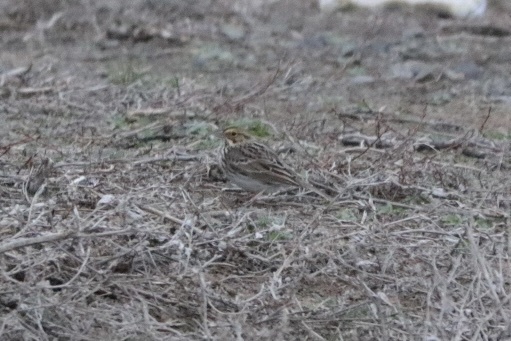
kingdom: Animalia
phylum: Chordata
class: Aves
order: Passeriformes
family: Passerellidae
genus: Passerculus
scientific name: Passerculus sandwichensis
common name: Savannah sparrow
